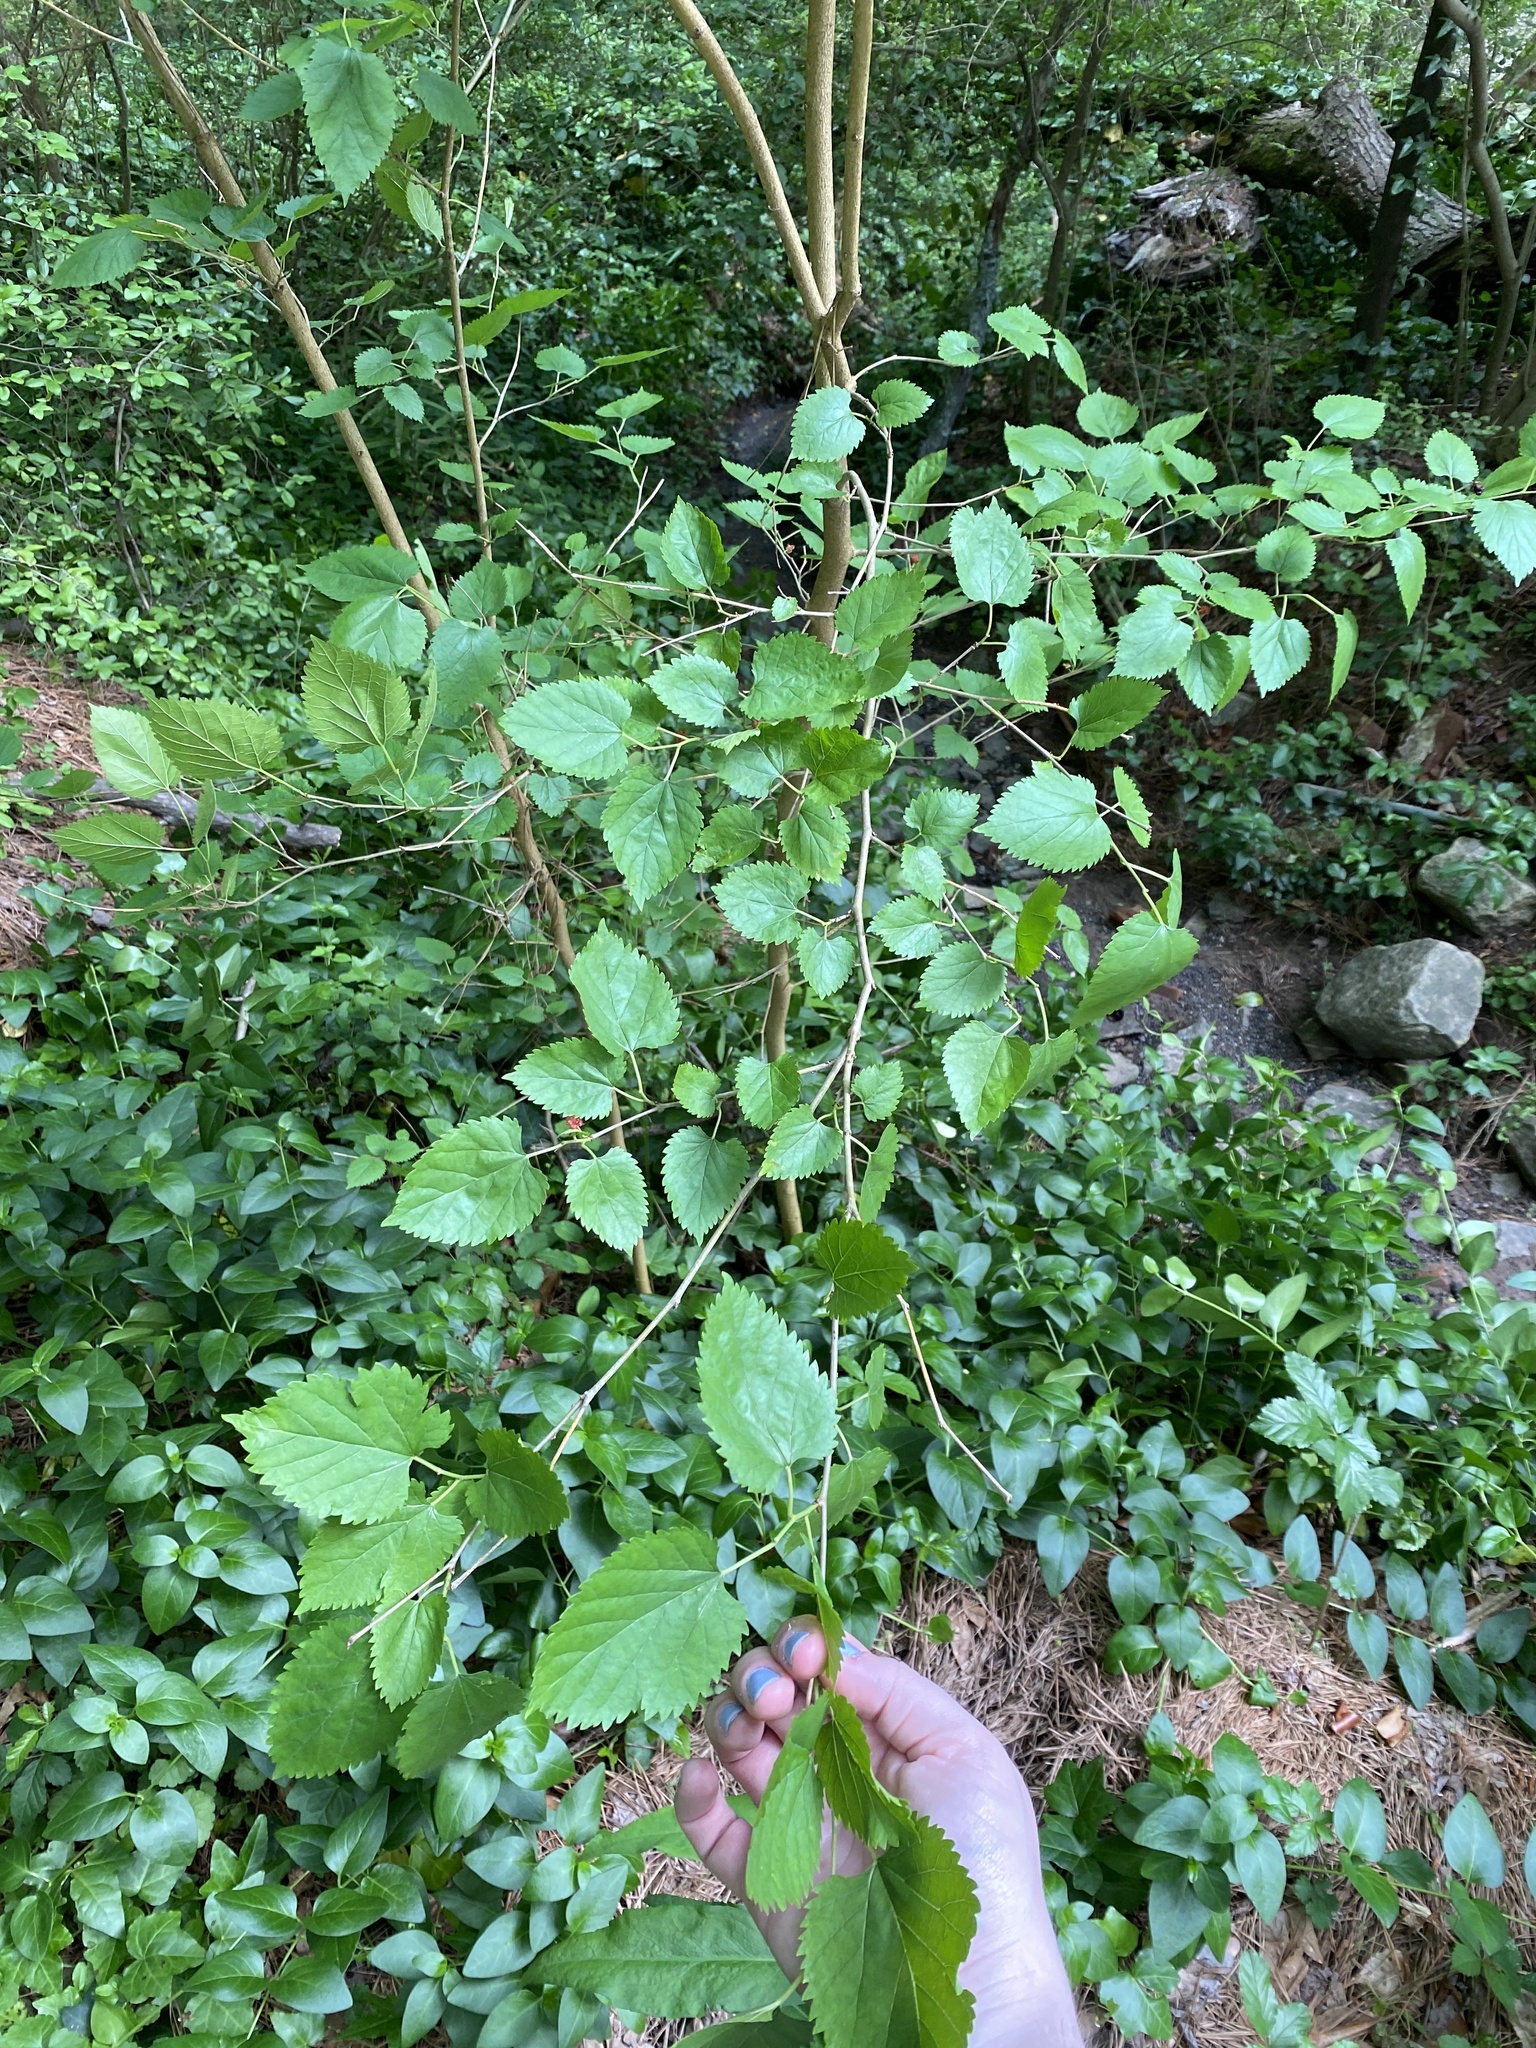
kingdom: Plantae
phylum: Tracheophyta
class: Magnoliopsida
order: Rosales
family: Moraceae
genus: Morus
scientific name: Morus alba
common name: White mulberry
